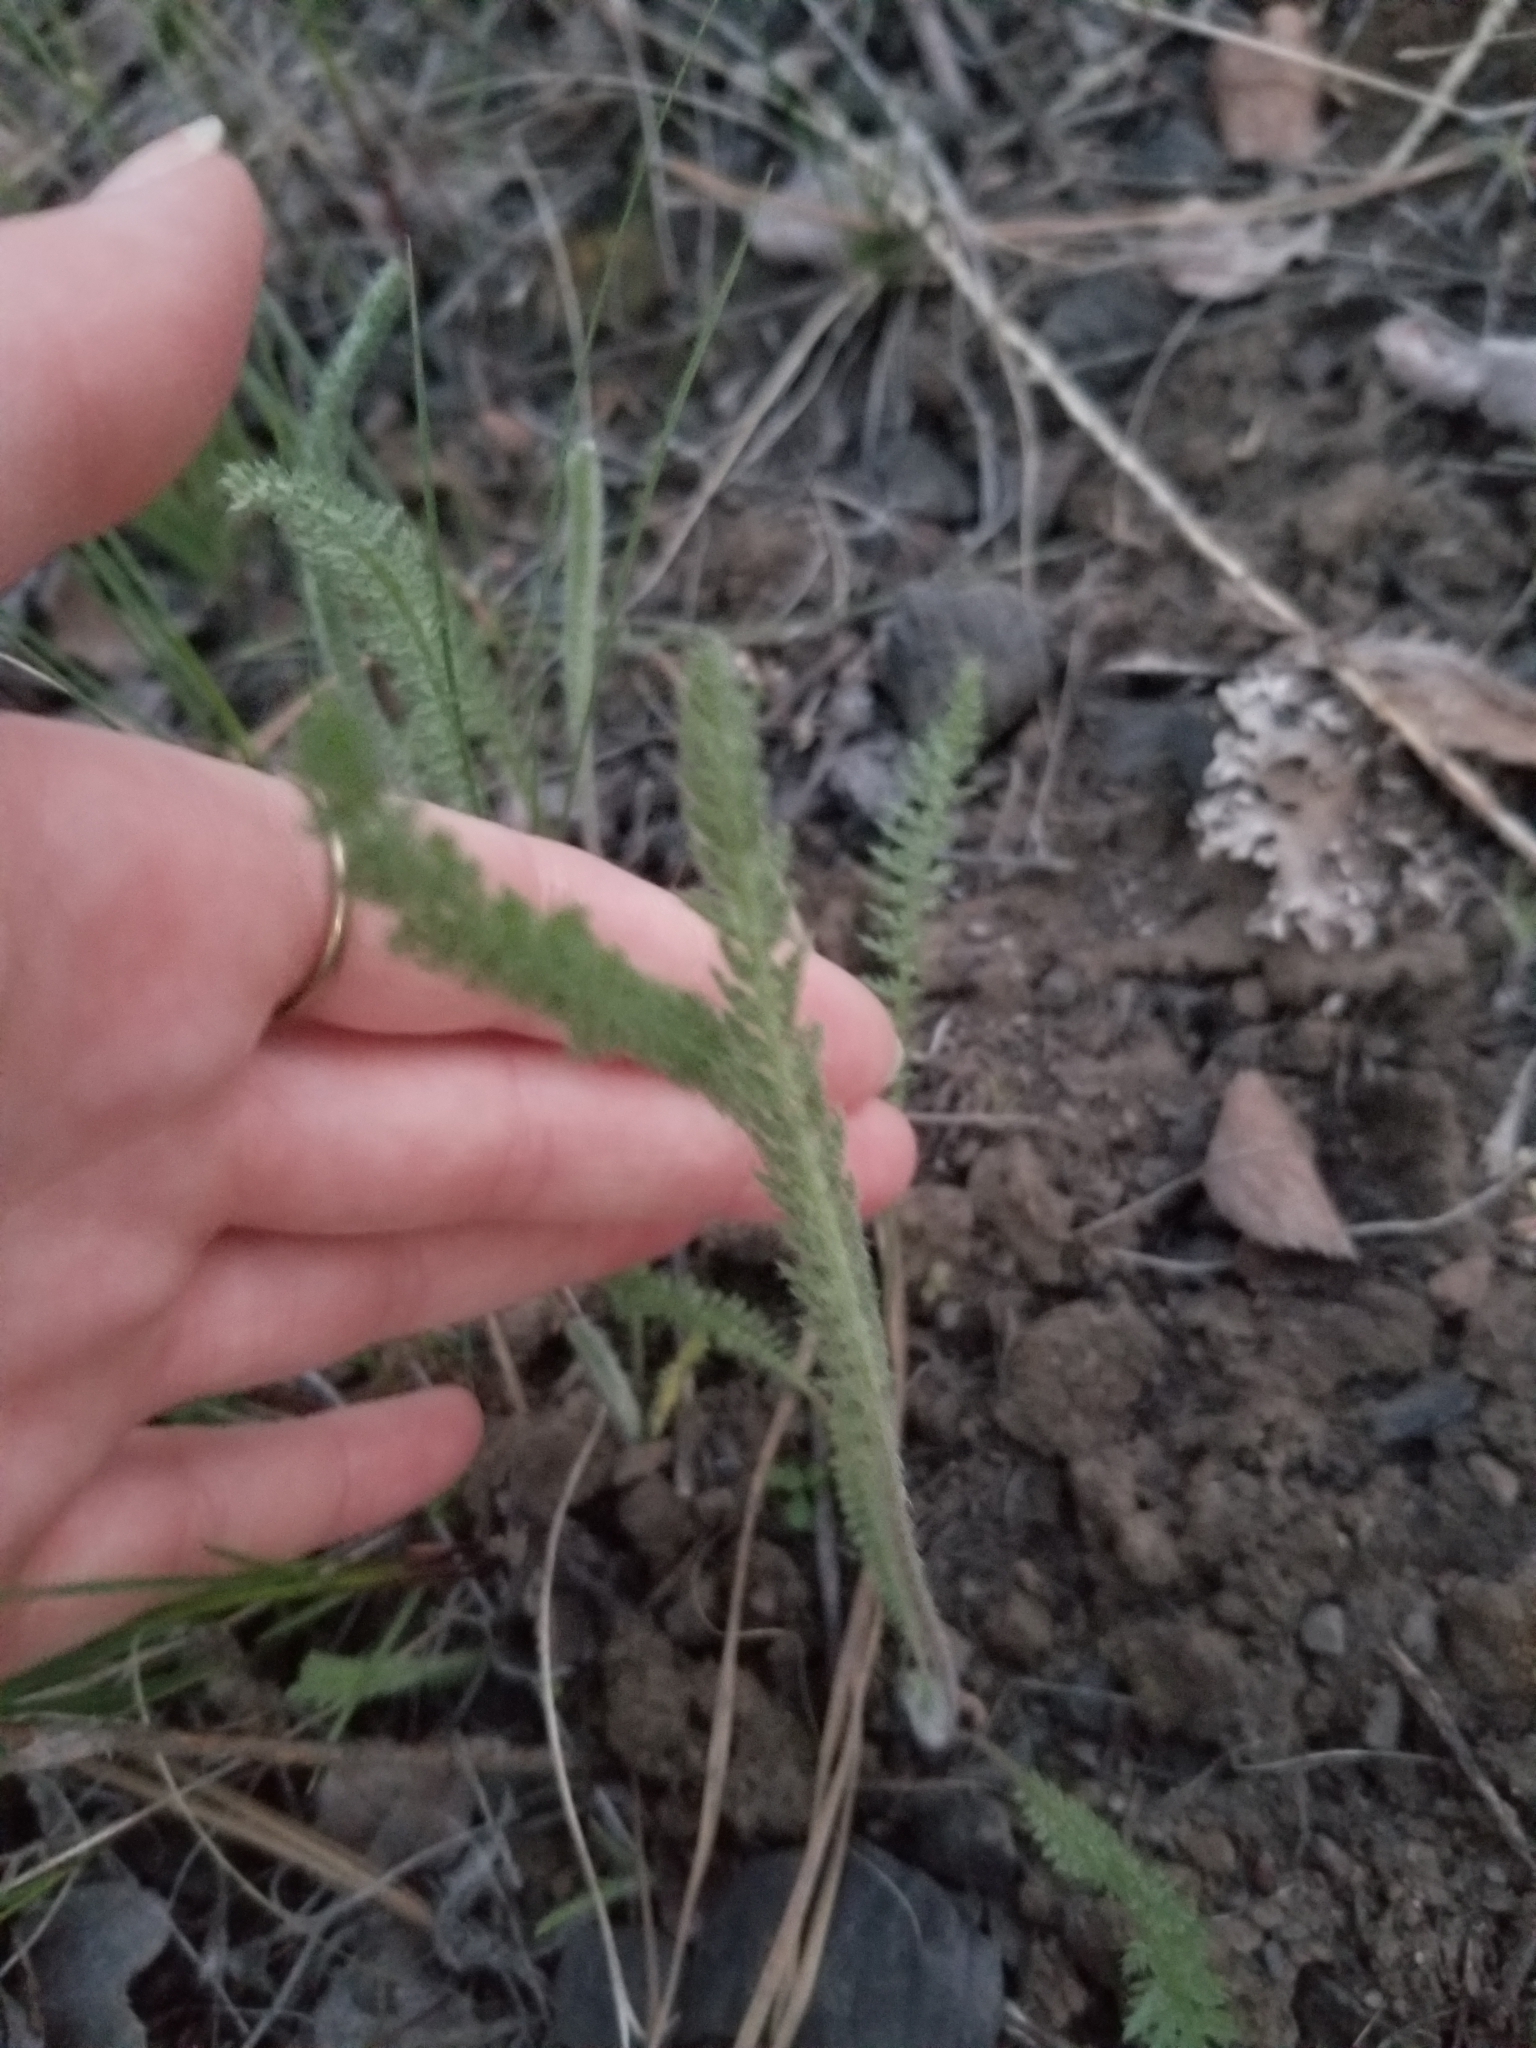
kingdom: Plantae
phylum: Tracheophyta
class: Magnoliopsida
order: Asterales
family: Asteraceae
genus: Achillea
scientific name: Achillea millefolium
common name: Yarrow
